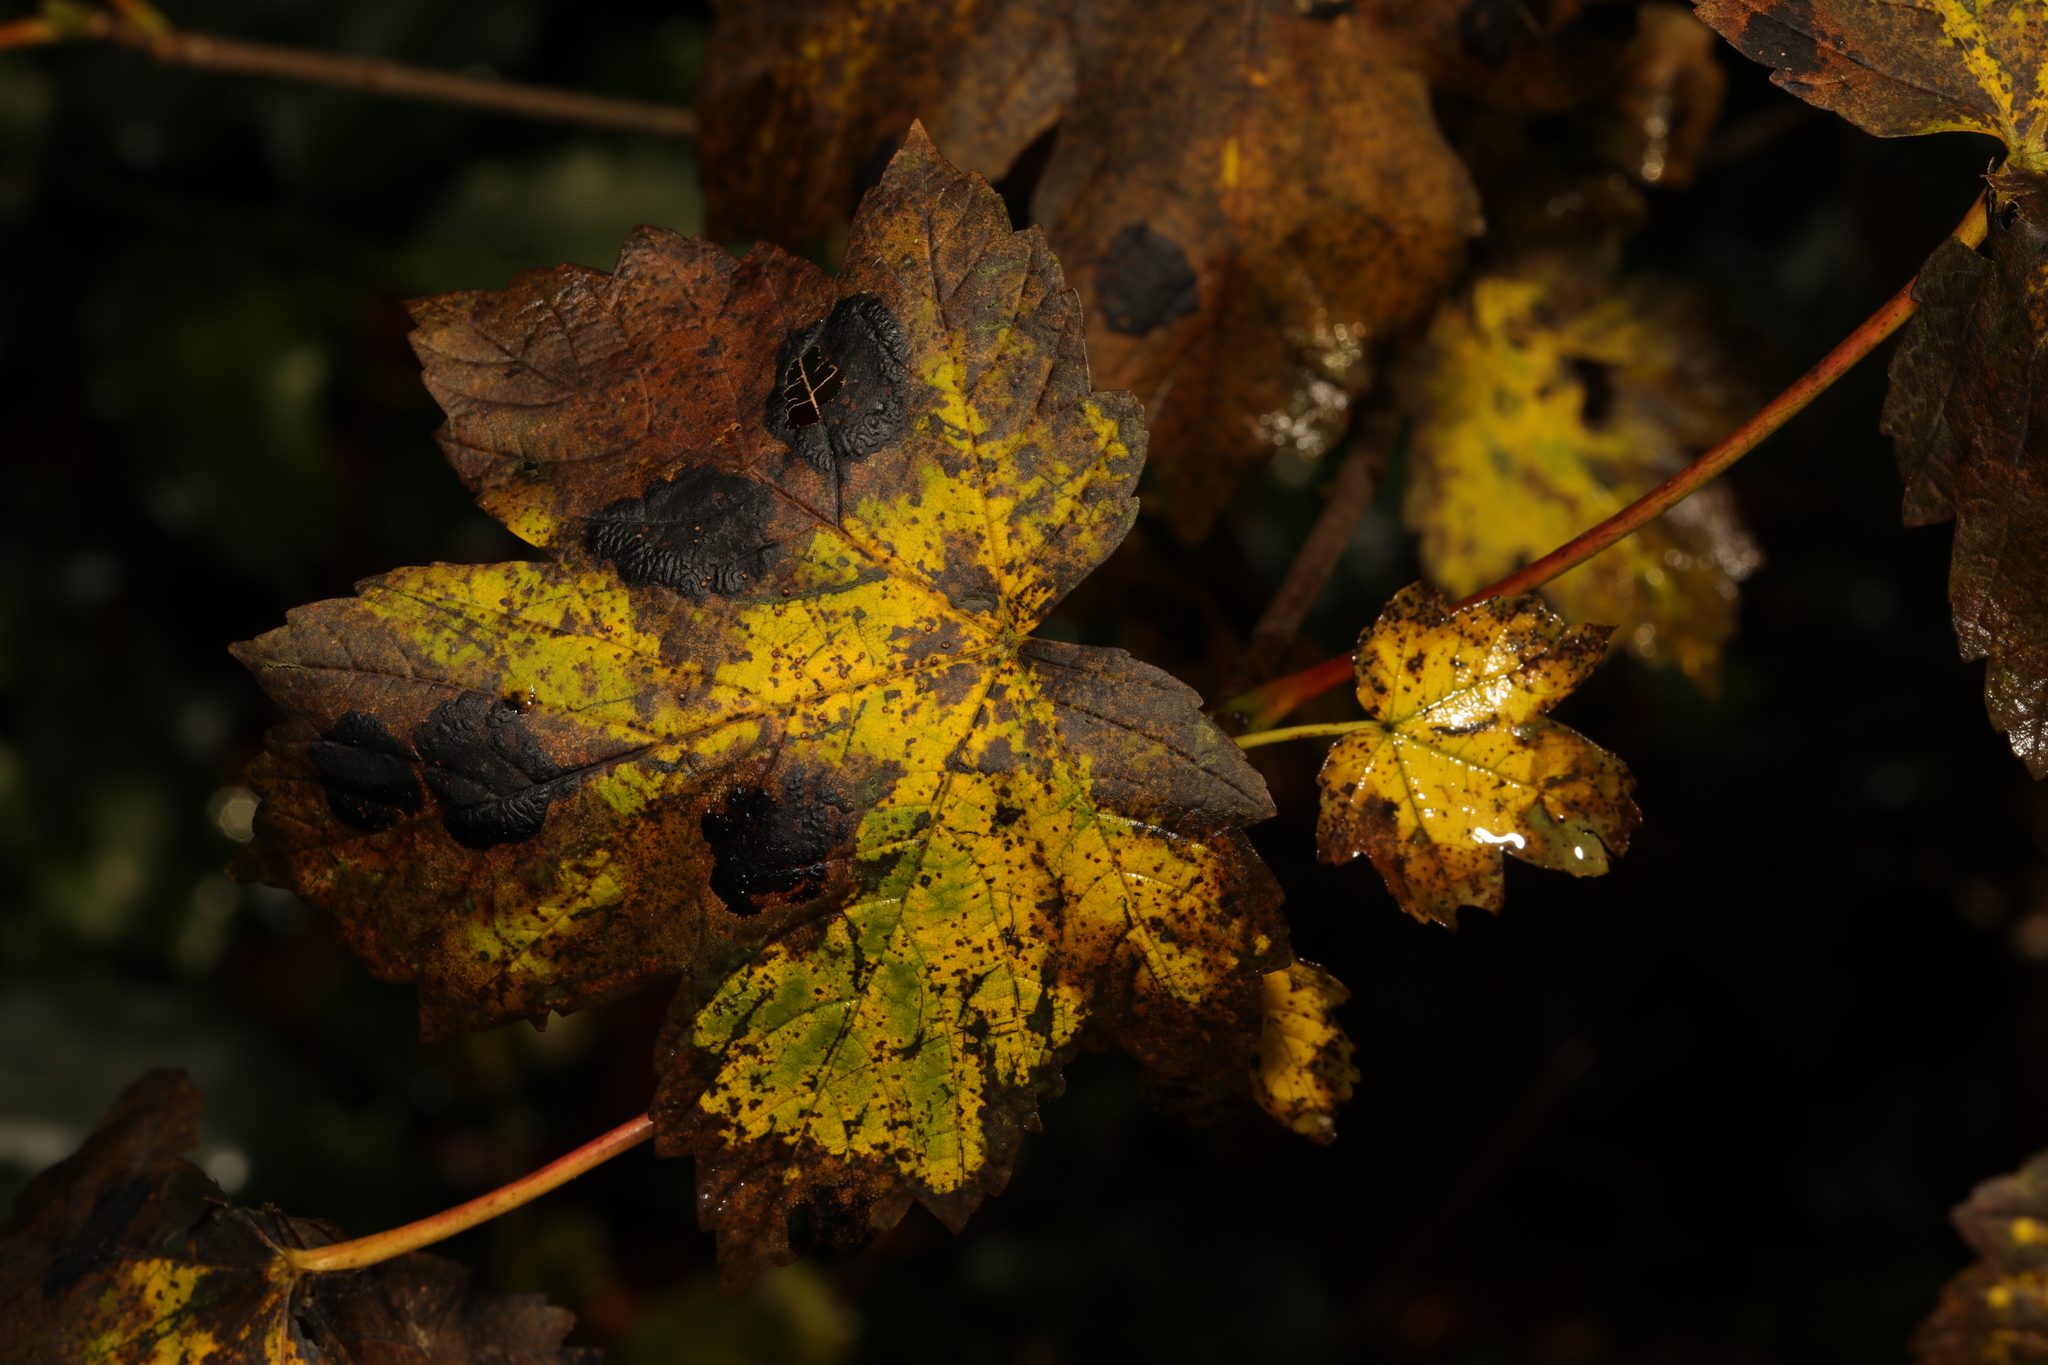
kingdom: Plantae
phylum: Tracheophyta
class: Magnoliopsida
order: Sapindales
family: Sapindaceae
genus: Acer
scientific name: Acer pseudoplatanus
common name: Sycamore
